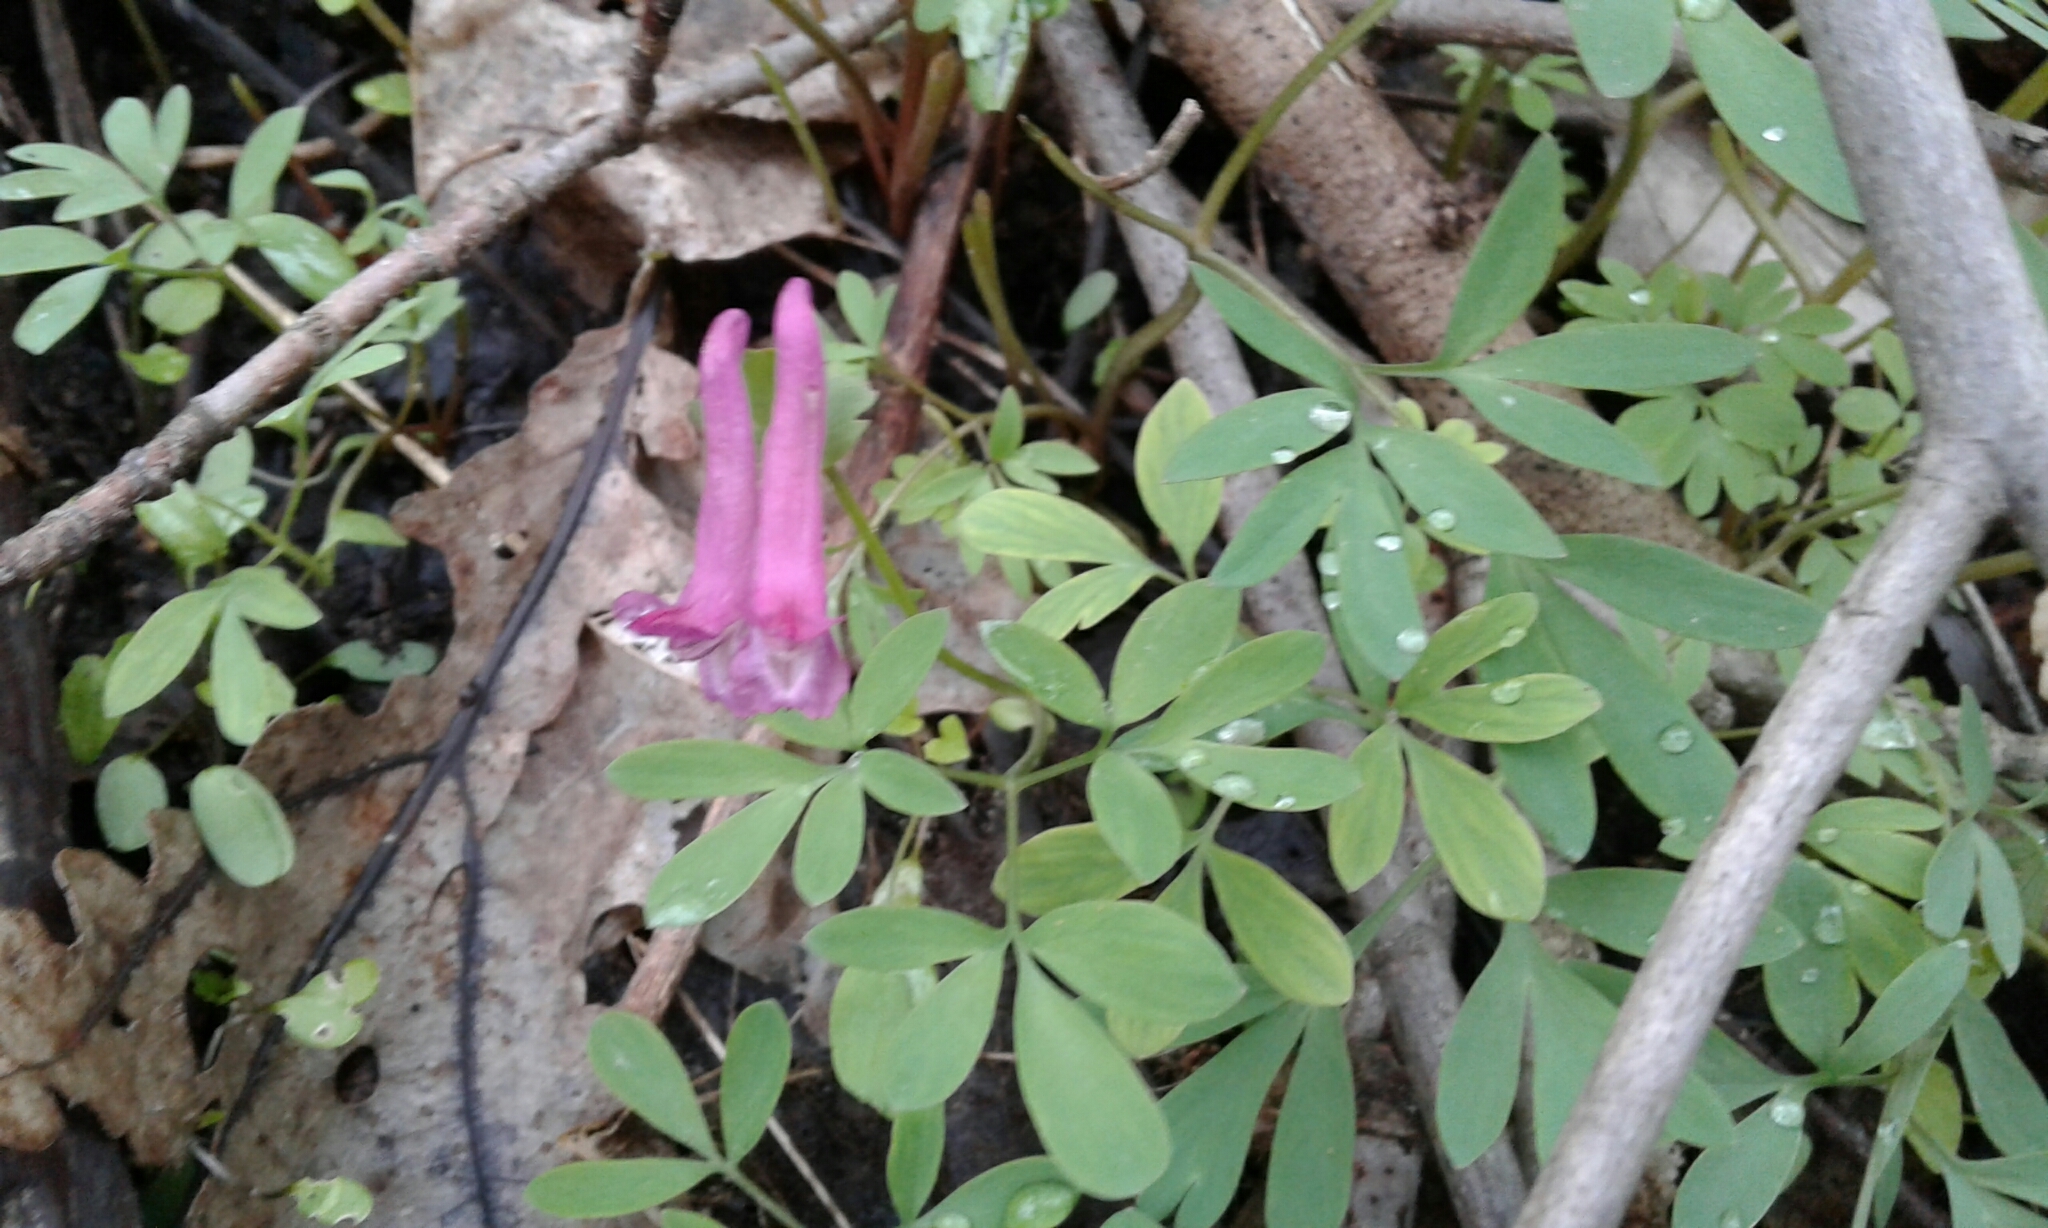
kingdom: Plantae
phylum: Tracheophyta
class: Magnoliopsida
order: Ranunculales
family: Papaveraceae
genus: Corydalis
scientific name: Corydalis solida
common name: Bird-in-a-bush
